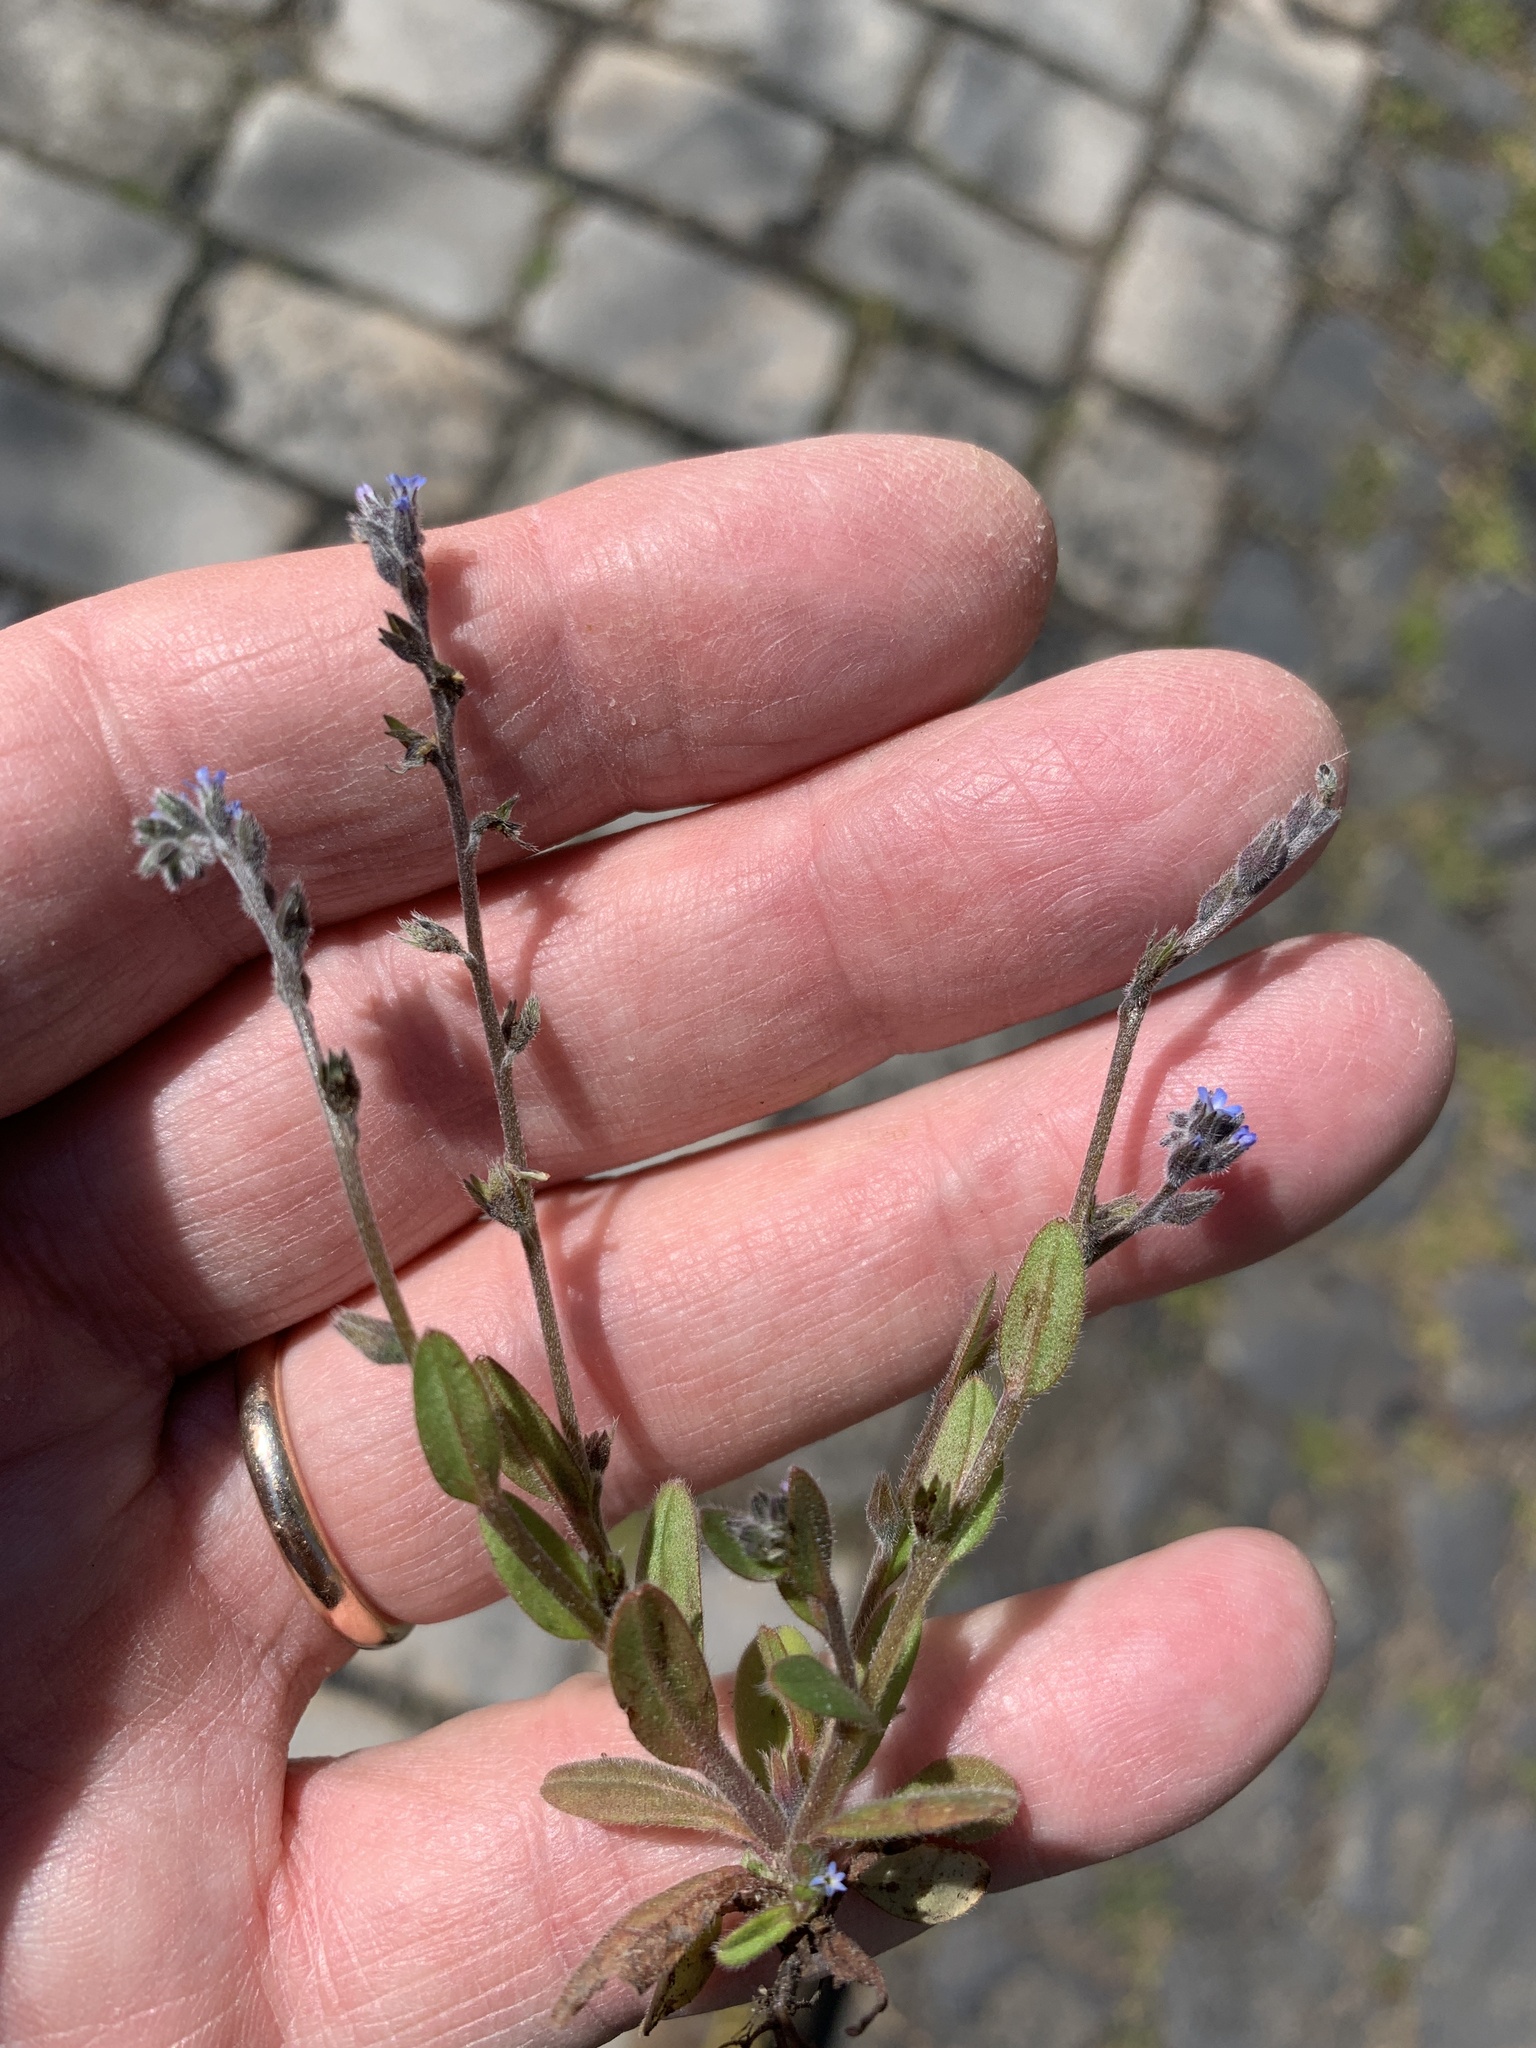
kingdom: Plantae
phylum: Tracheophyta
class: Magnoliopsida
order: Boraginales
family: Boraginaceae
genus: Myosotis
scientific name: Myosotis stricta
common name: Strict forget-me-not
